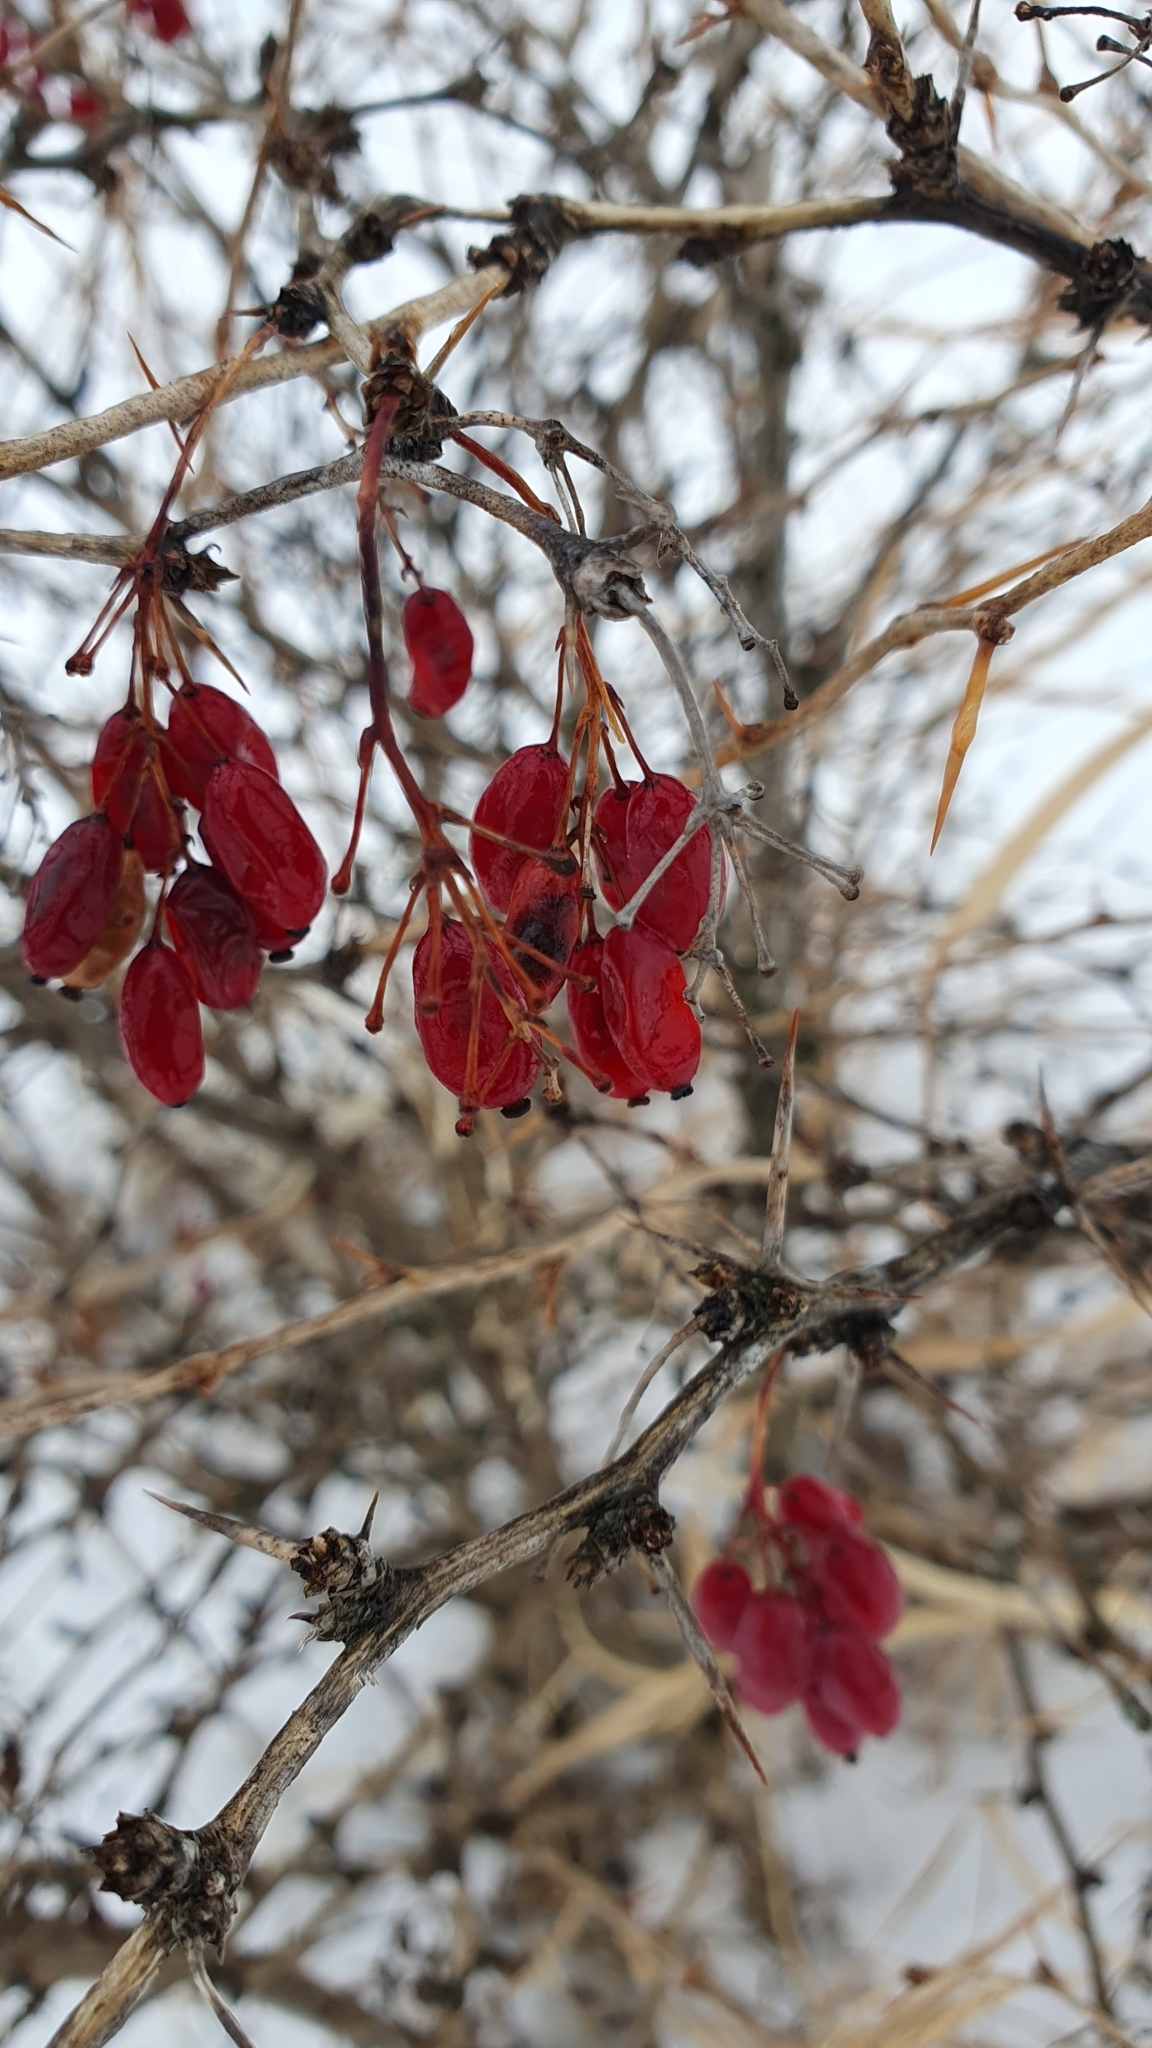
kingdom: Plantae
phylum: Tracheophyta
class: Magnoliopsida
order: Ranunculales
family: Berberidaceae
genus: Berberis
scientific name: Berberis vulgaris
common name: Barberry
